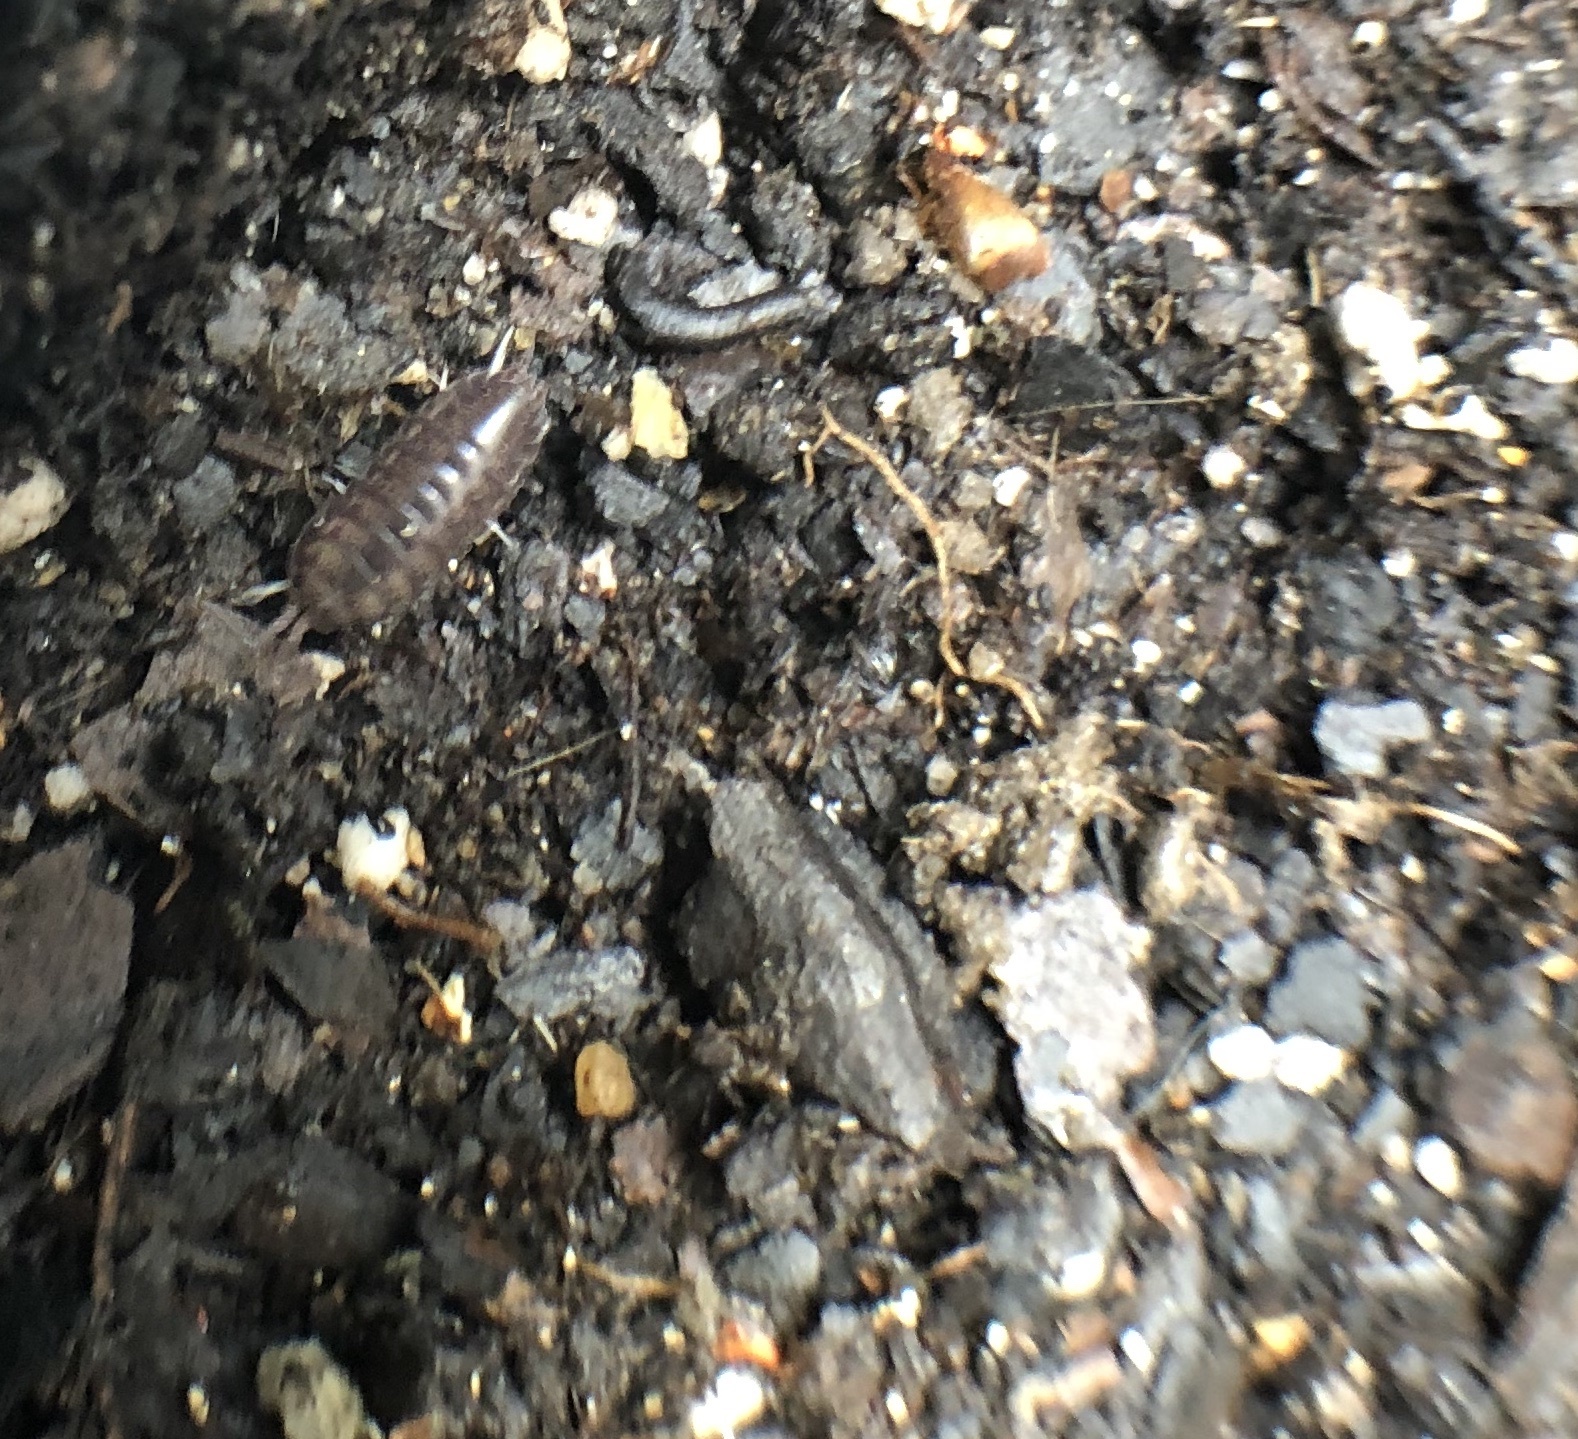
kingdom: Animalia
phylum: Arthropoda
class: Malacostraca
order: Isopoda
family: Cylisticidae
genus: Cylisticus
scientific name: Cylisticus convexus
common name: Curly woodlouse
